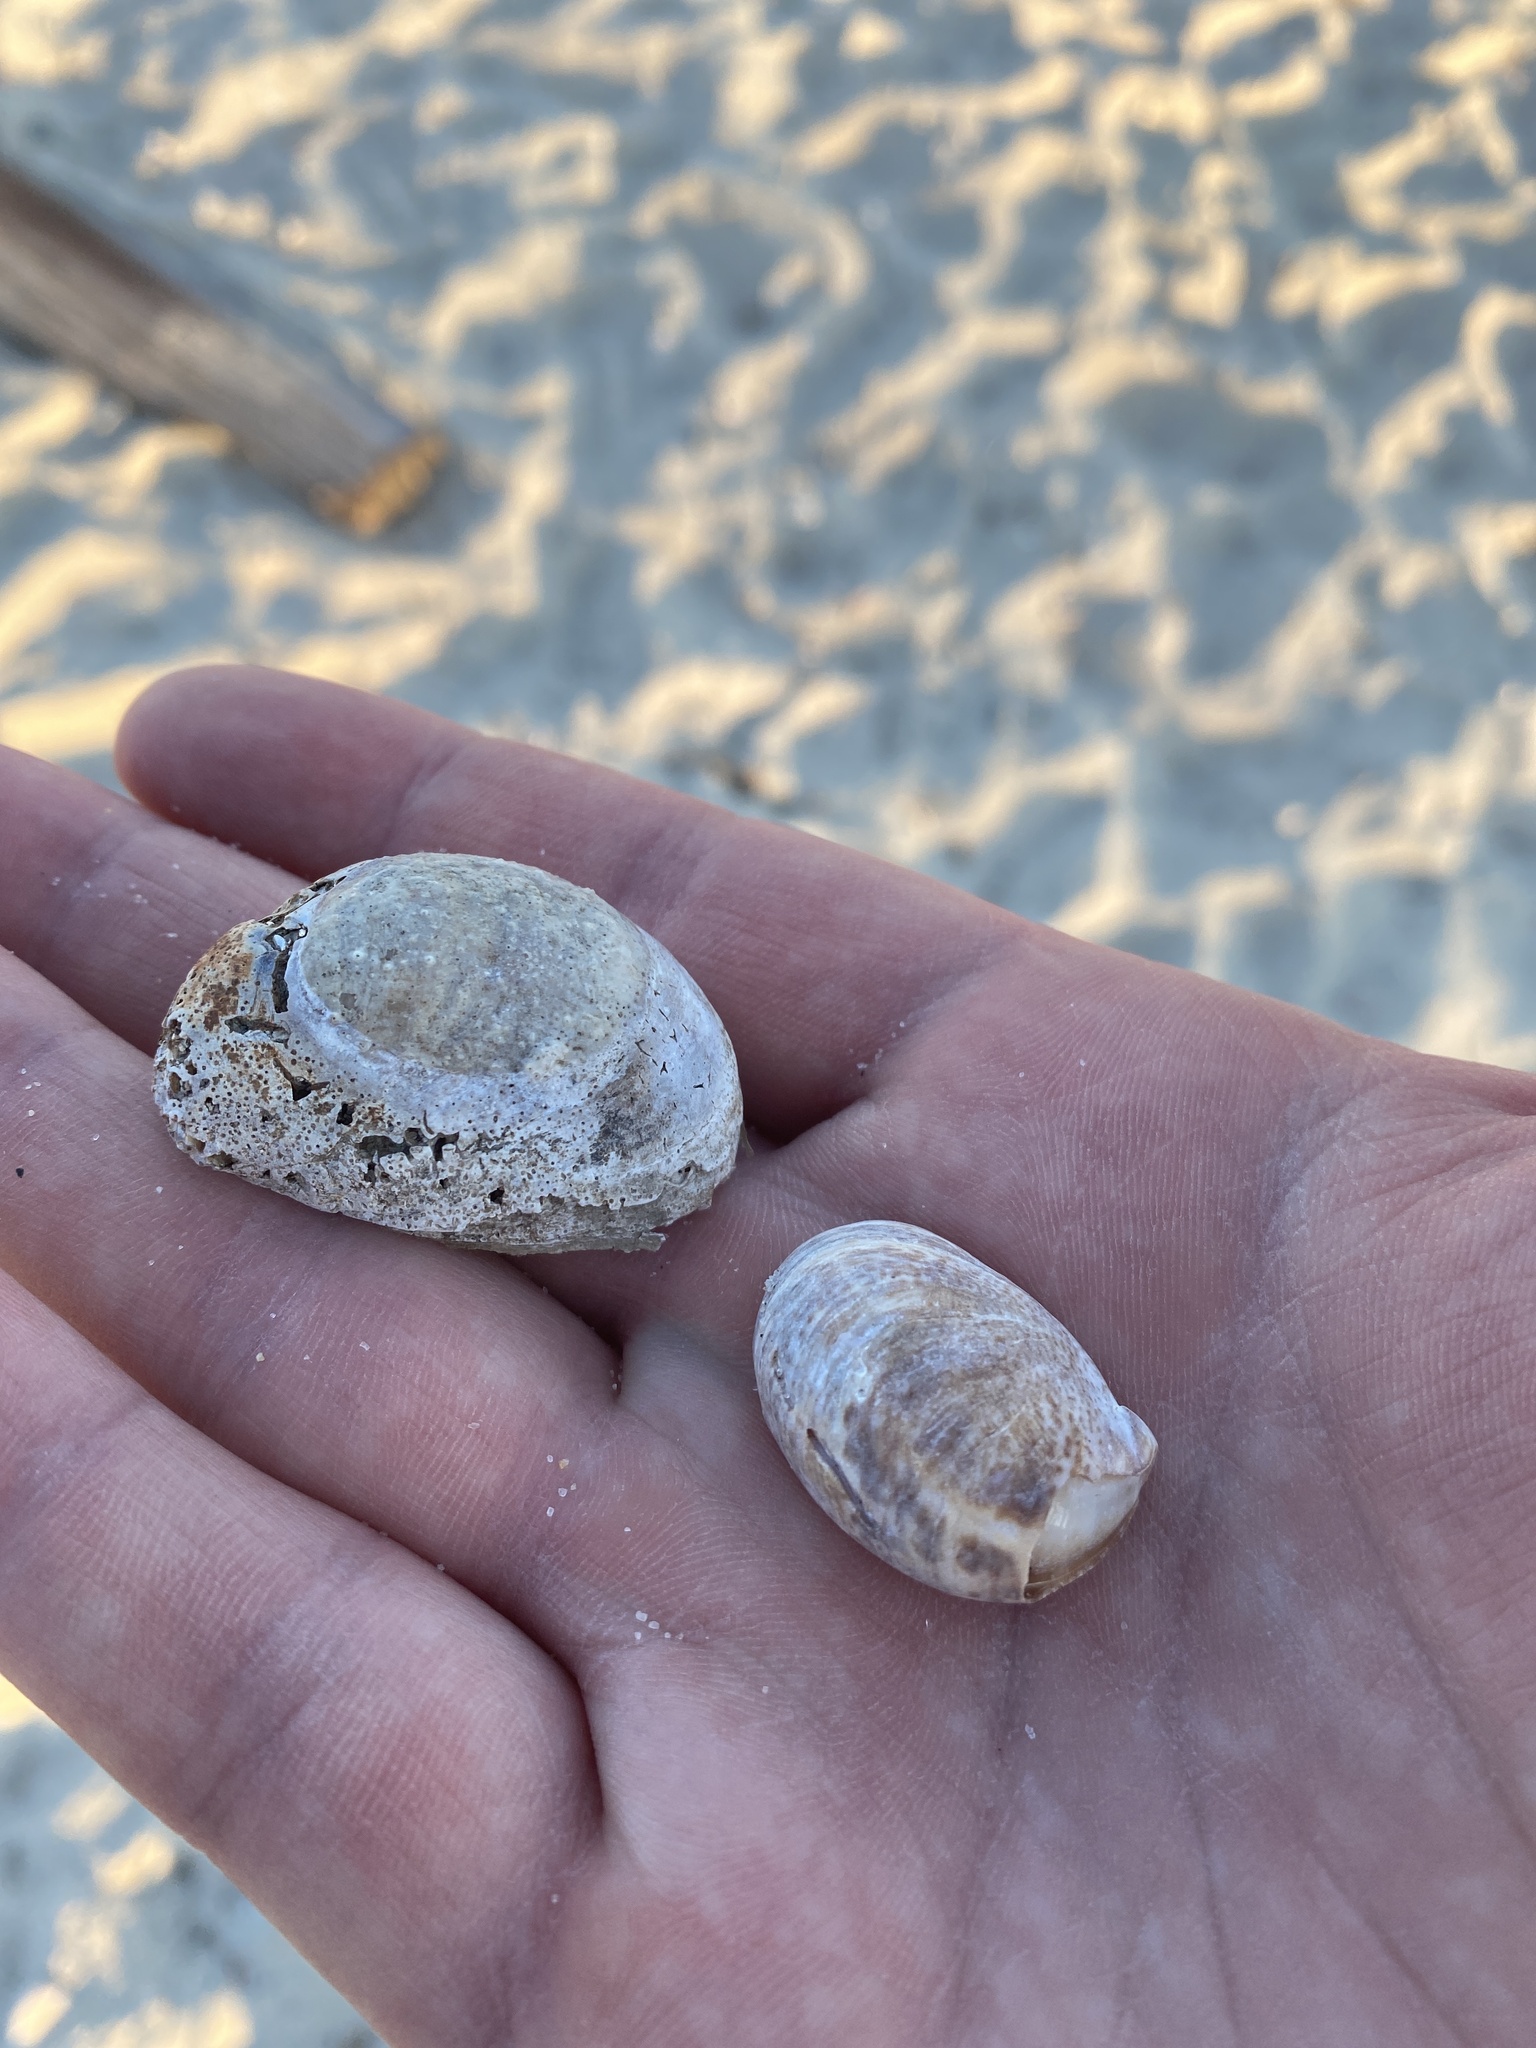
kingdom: Animalia
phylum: Mollusca
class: Gastropoda
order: Littorinimorpha
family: Calyptraeidae
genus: Crepidula
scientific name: Crepidula fornicata
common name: Slipper limpet
